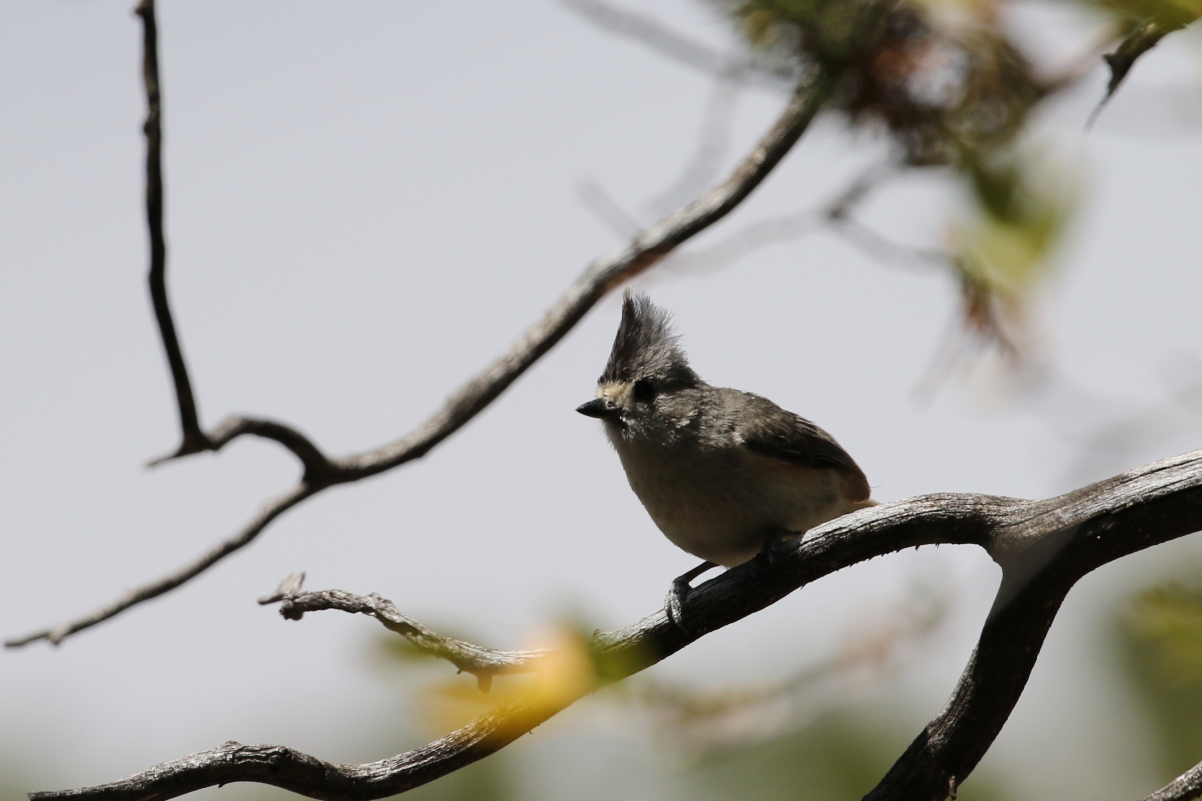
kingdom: Animalia
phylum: Chordata
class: Aves
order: Passeriformes
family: Paridae
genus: Baeolophus
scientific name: Baeolophus atricristatus
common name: Black-crested titmouse
